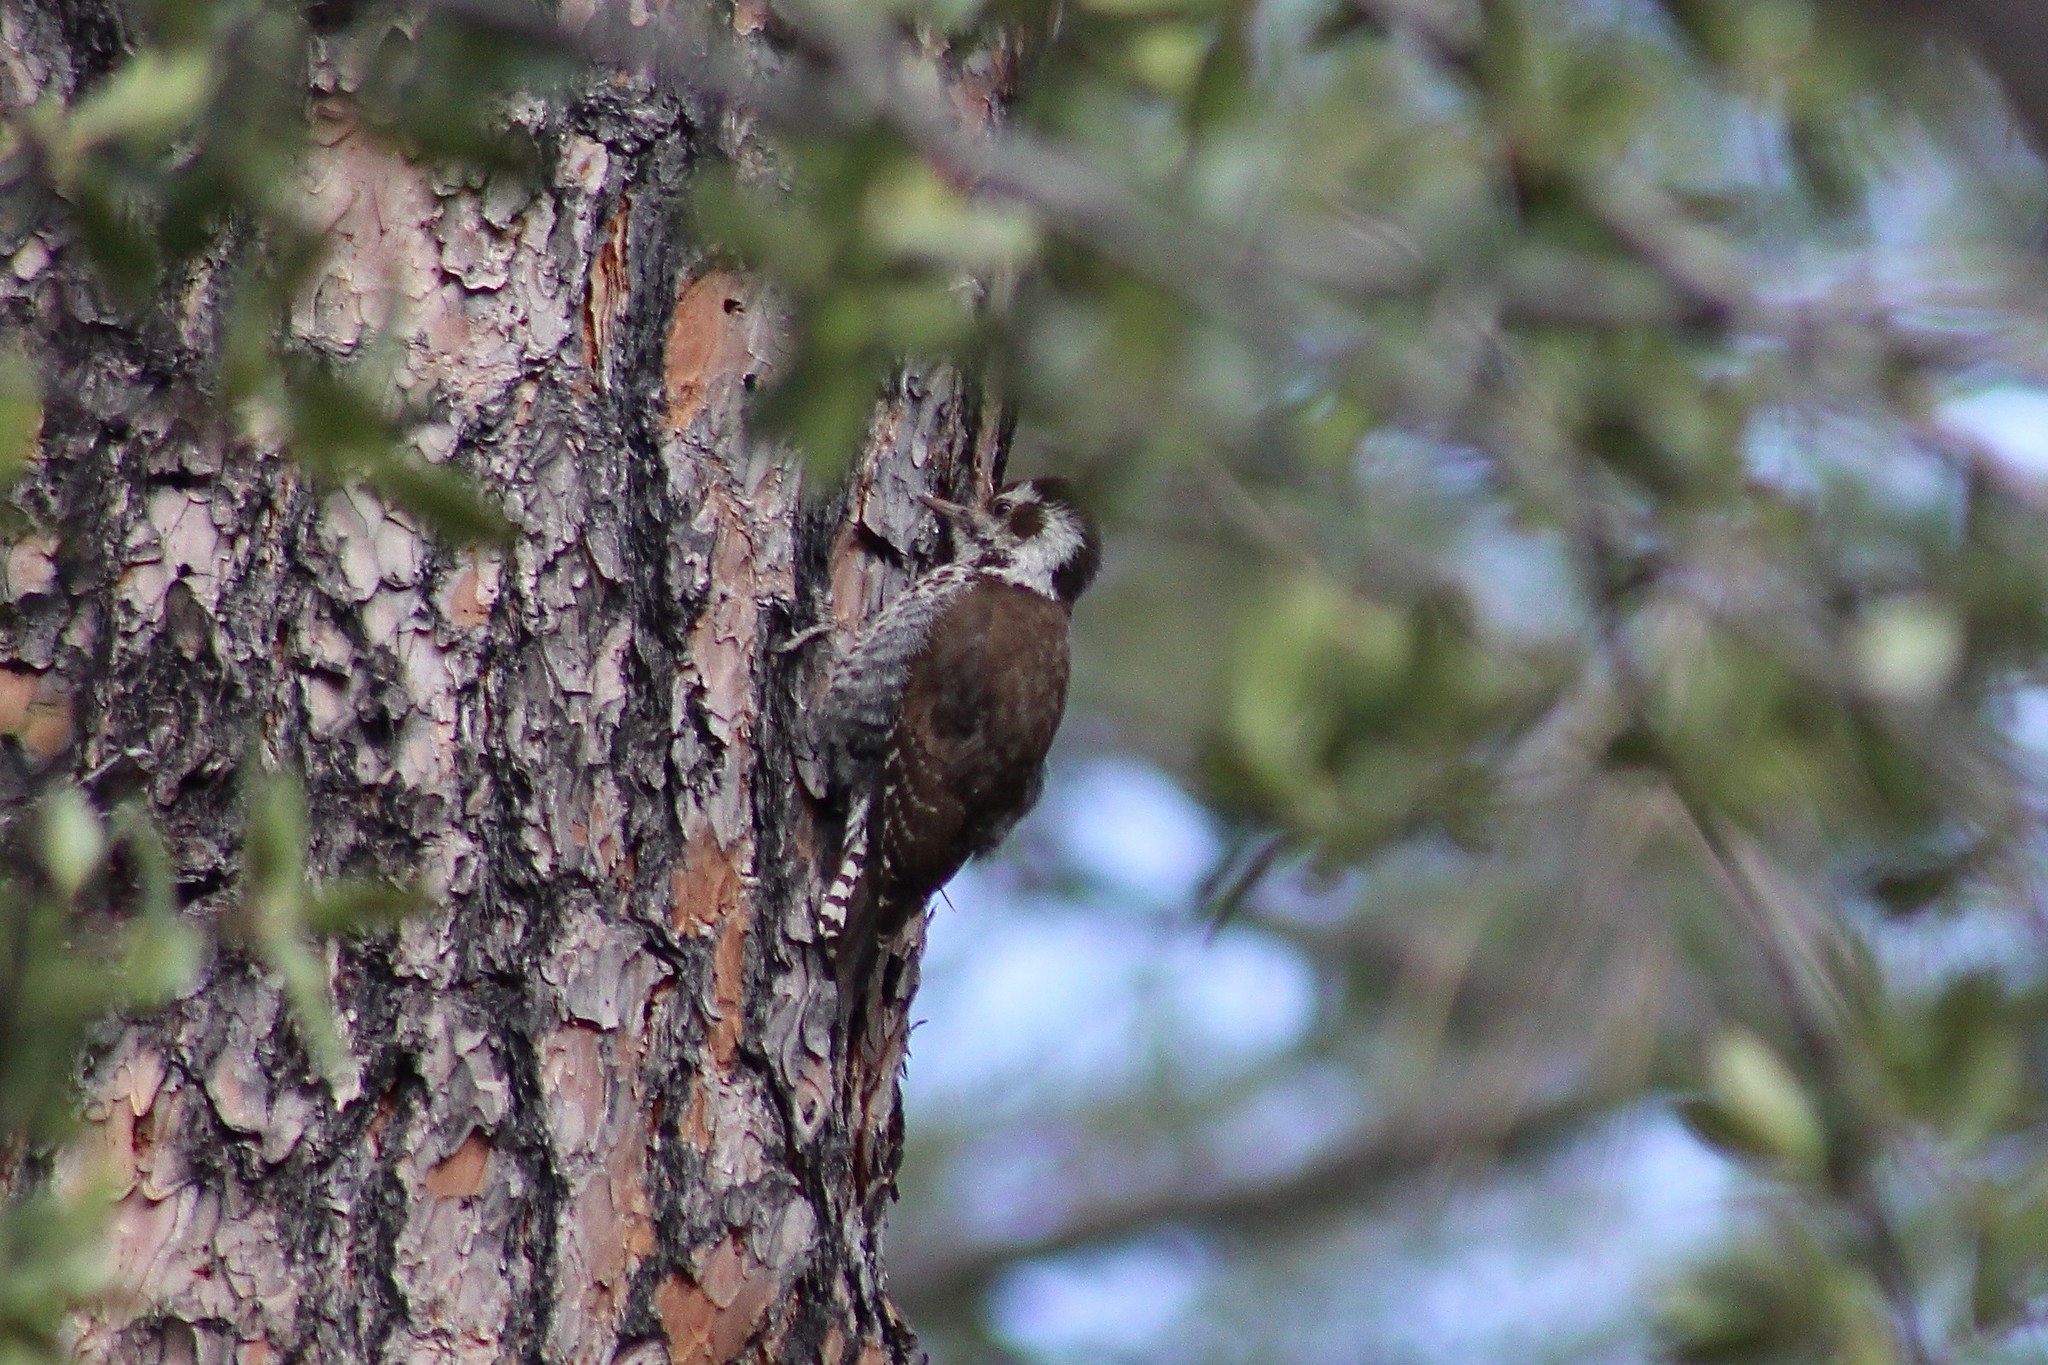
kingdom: Animalia
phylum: Chordata
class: Aves
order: Piciformes
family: Picidae
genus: Leuconotopicus
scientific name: Leuconotopicus arizonae
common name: Arizona woodpecker
